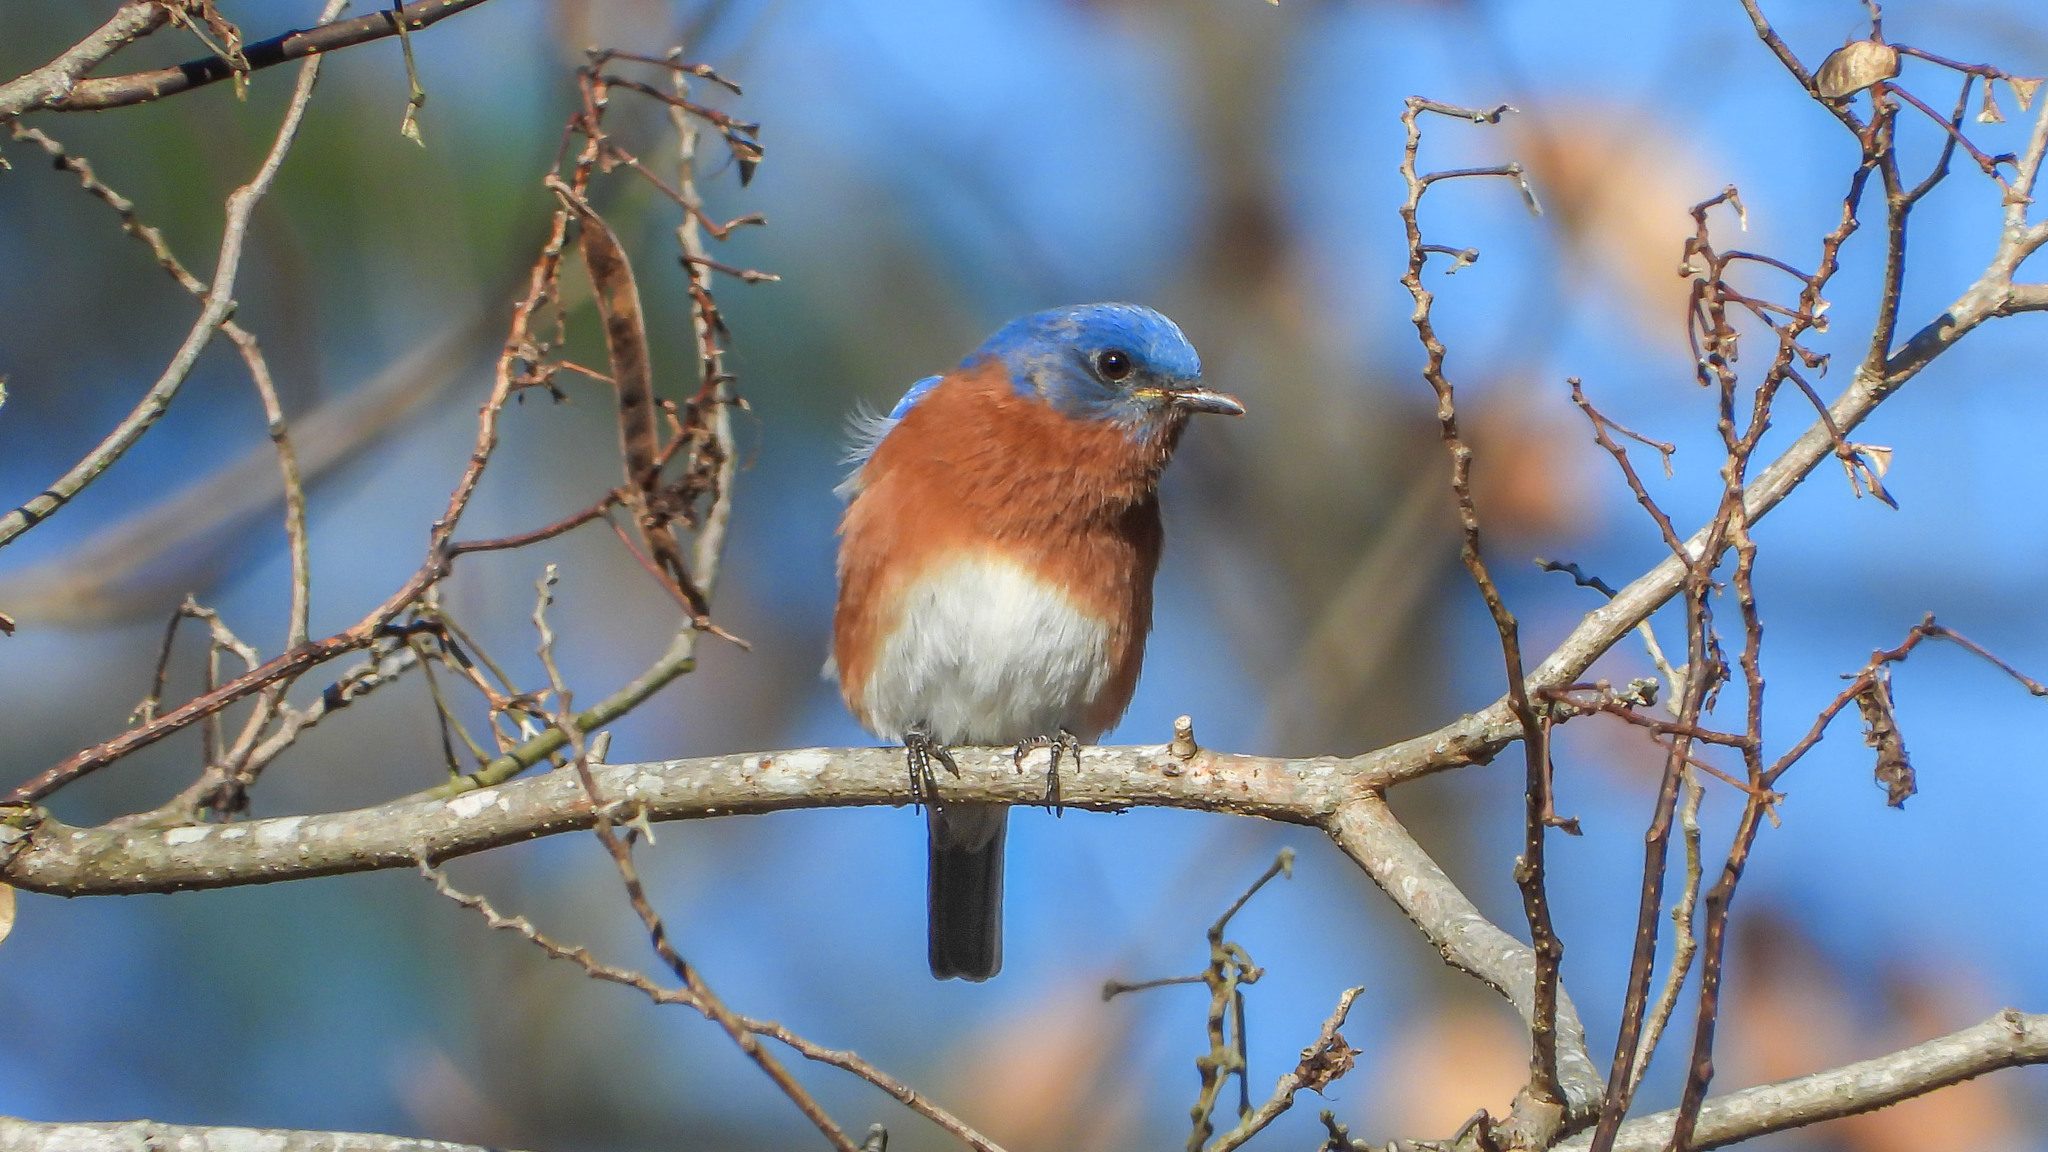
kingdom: Animalia
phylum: Chordata
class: Aves
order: Passeriformes
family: Turdidae
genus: Sialia
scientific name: Sialia sialis
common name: Eastern bluebird
